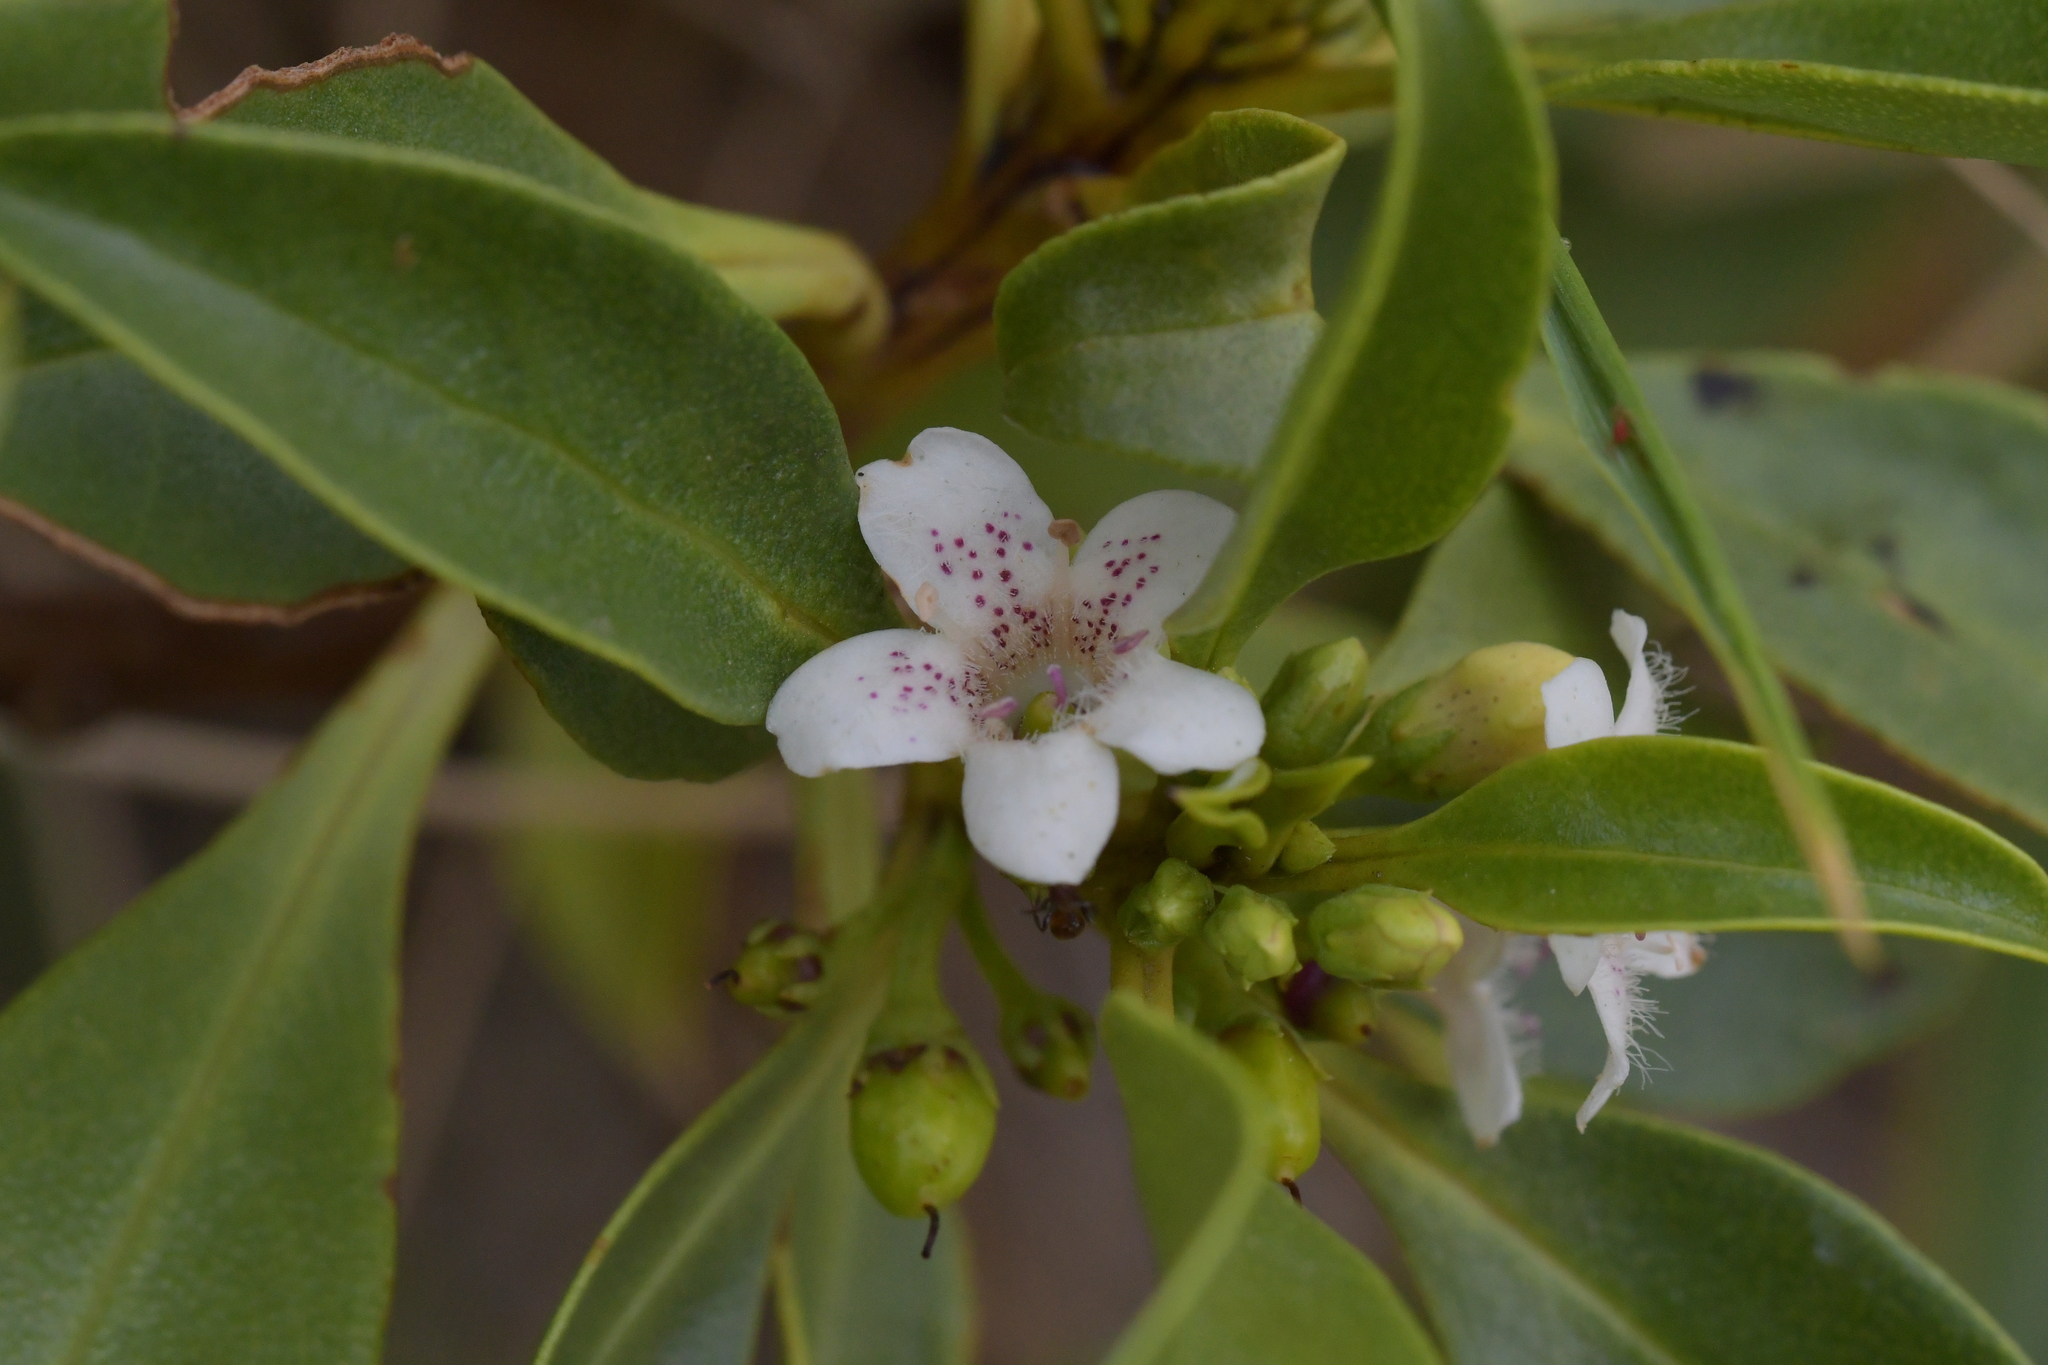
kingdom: Plantae
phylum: Tracheophyta
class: Magnoliopsida
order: Lamiales
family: Scrophulariaceae
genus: Myoporum
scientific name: Myoporum laetum
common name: Ngaio tree
